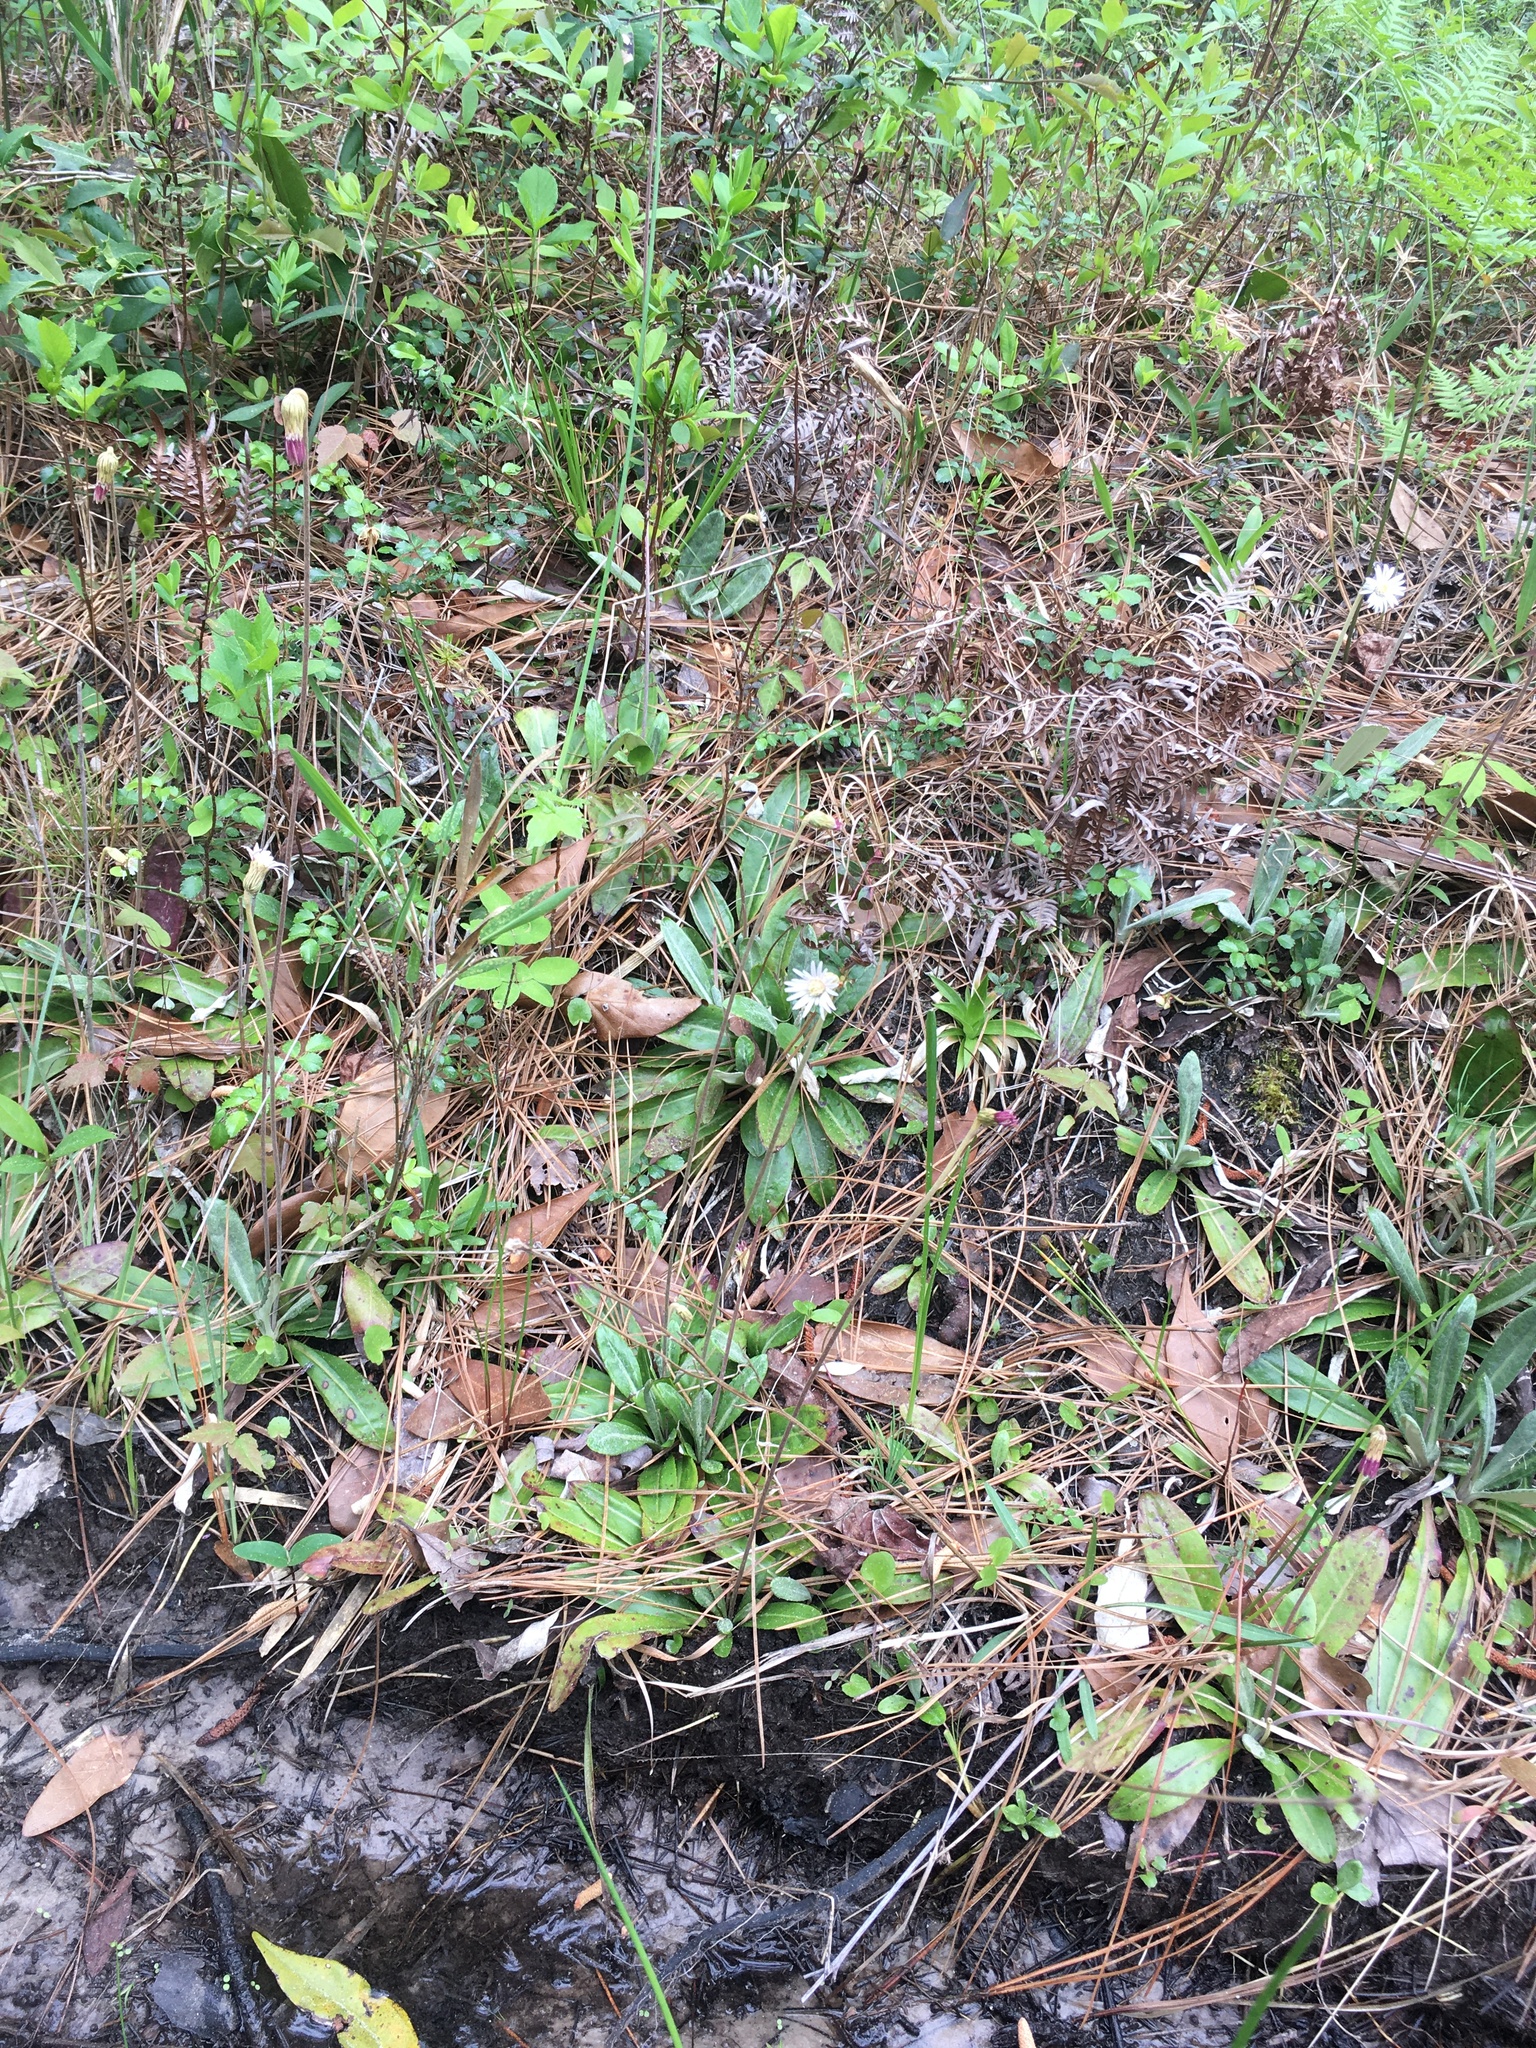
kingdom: Plantae
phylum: Tracheophyta
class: Magnoliopsida
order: Asterales
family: Asteraceae
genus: Chaptalia
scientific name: Chaptalia tomentosa
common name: Woolly sunbonnet
